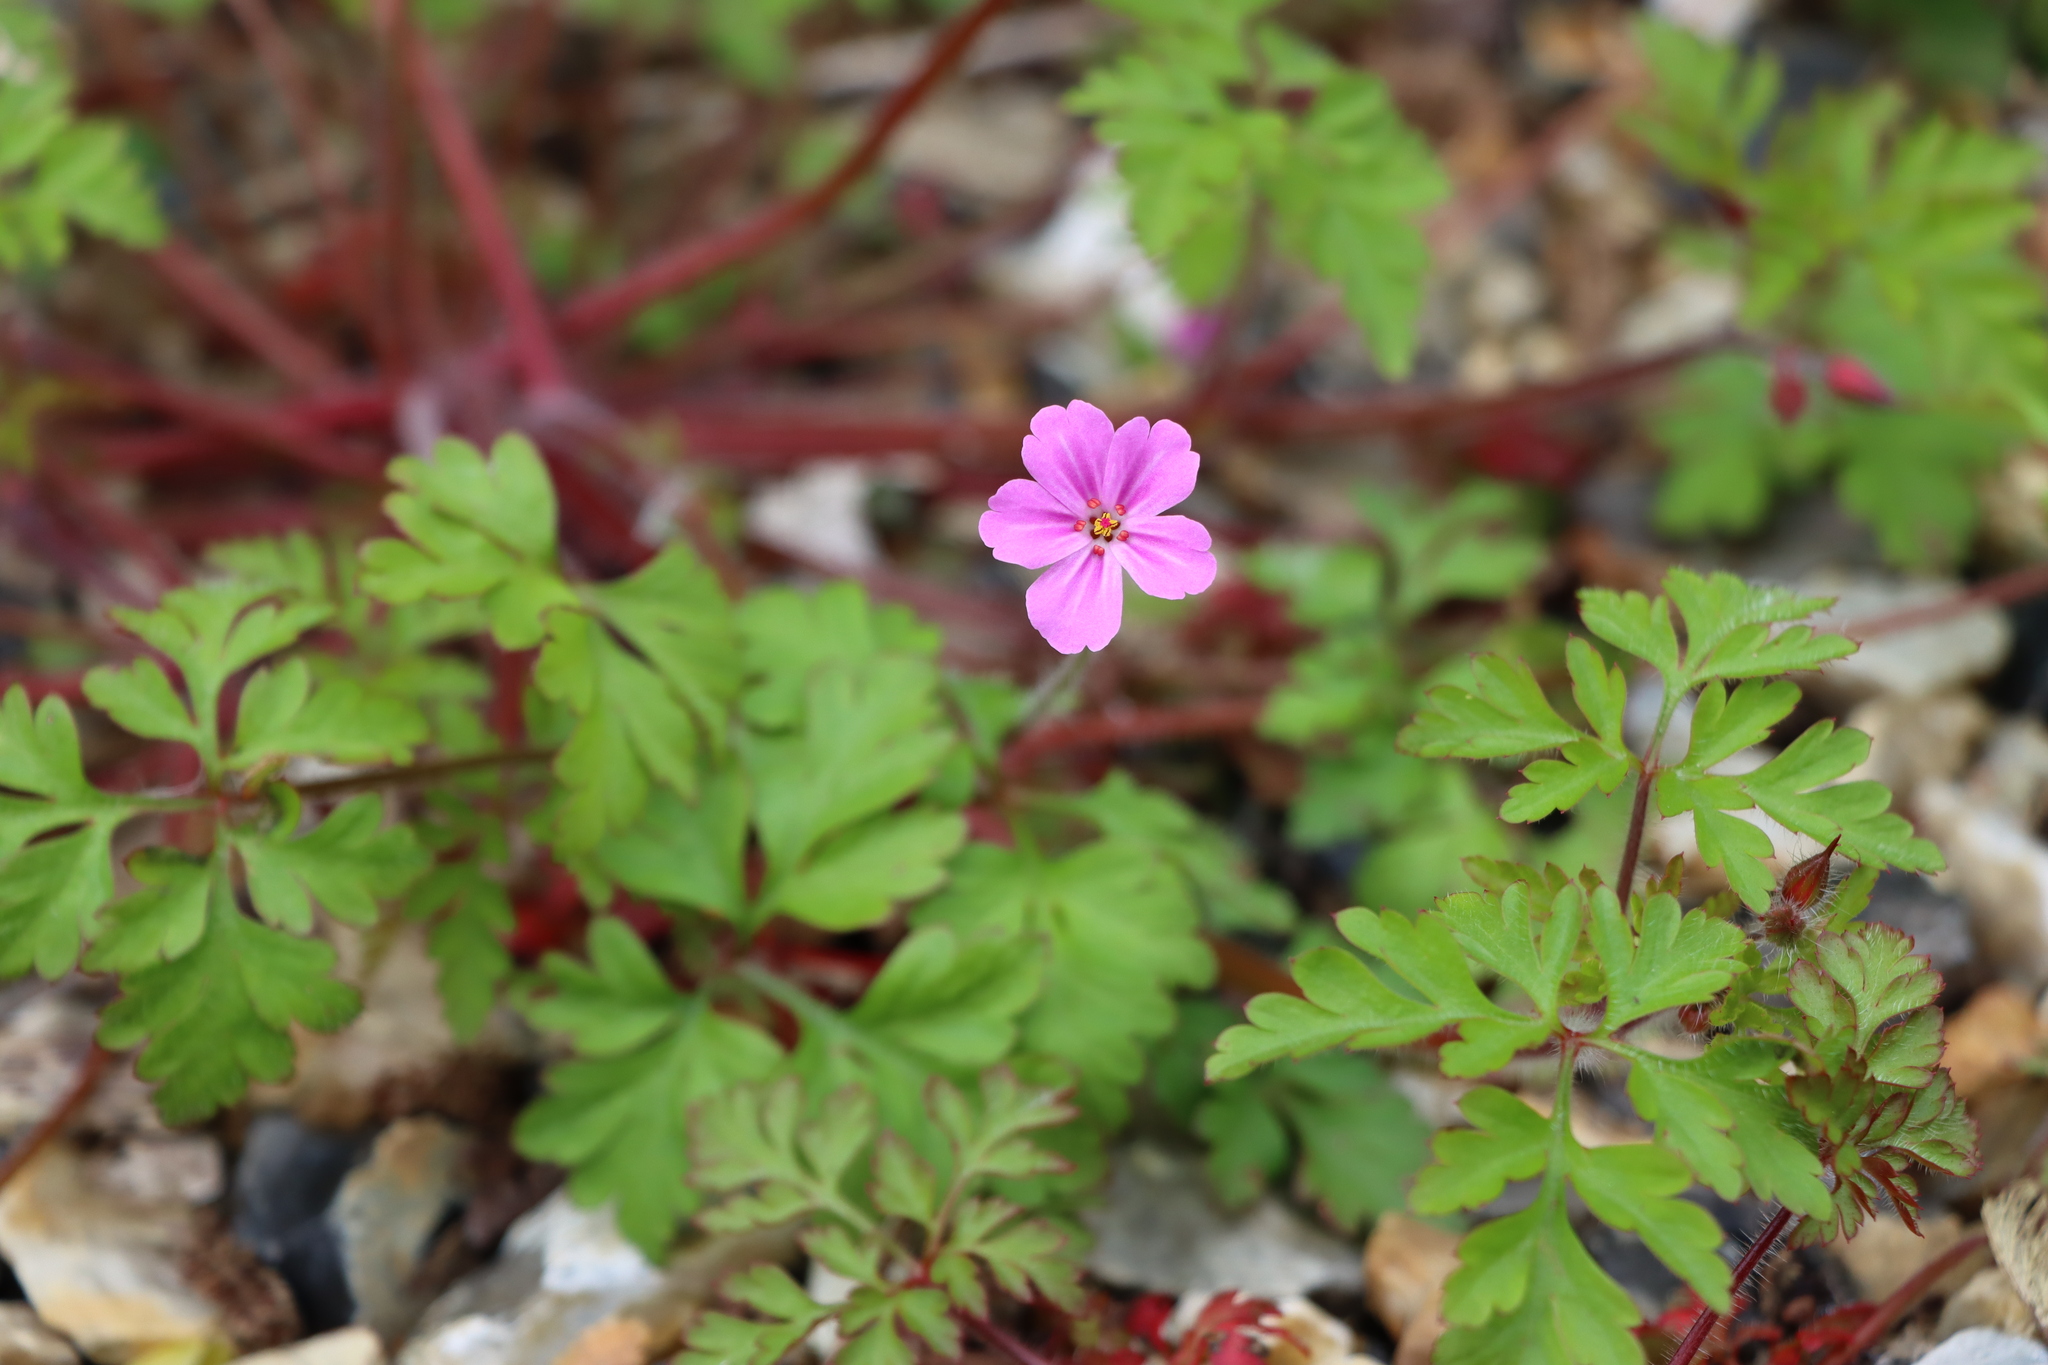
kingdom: Plantae
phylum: Tracheophyta
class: Magnoliopsida
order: Geraniales
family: Geraniaceae
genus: Geranium
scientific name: Geranium robertianum
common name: Herb-robert
